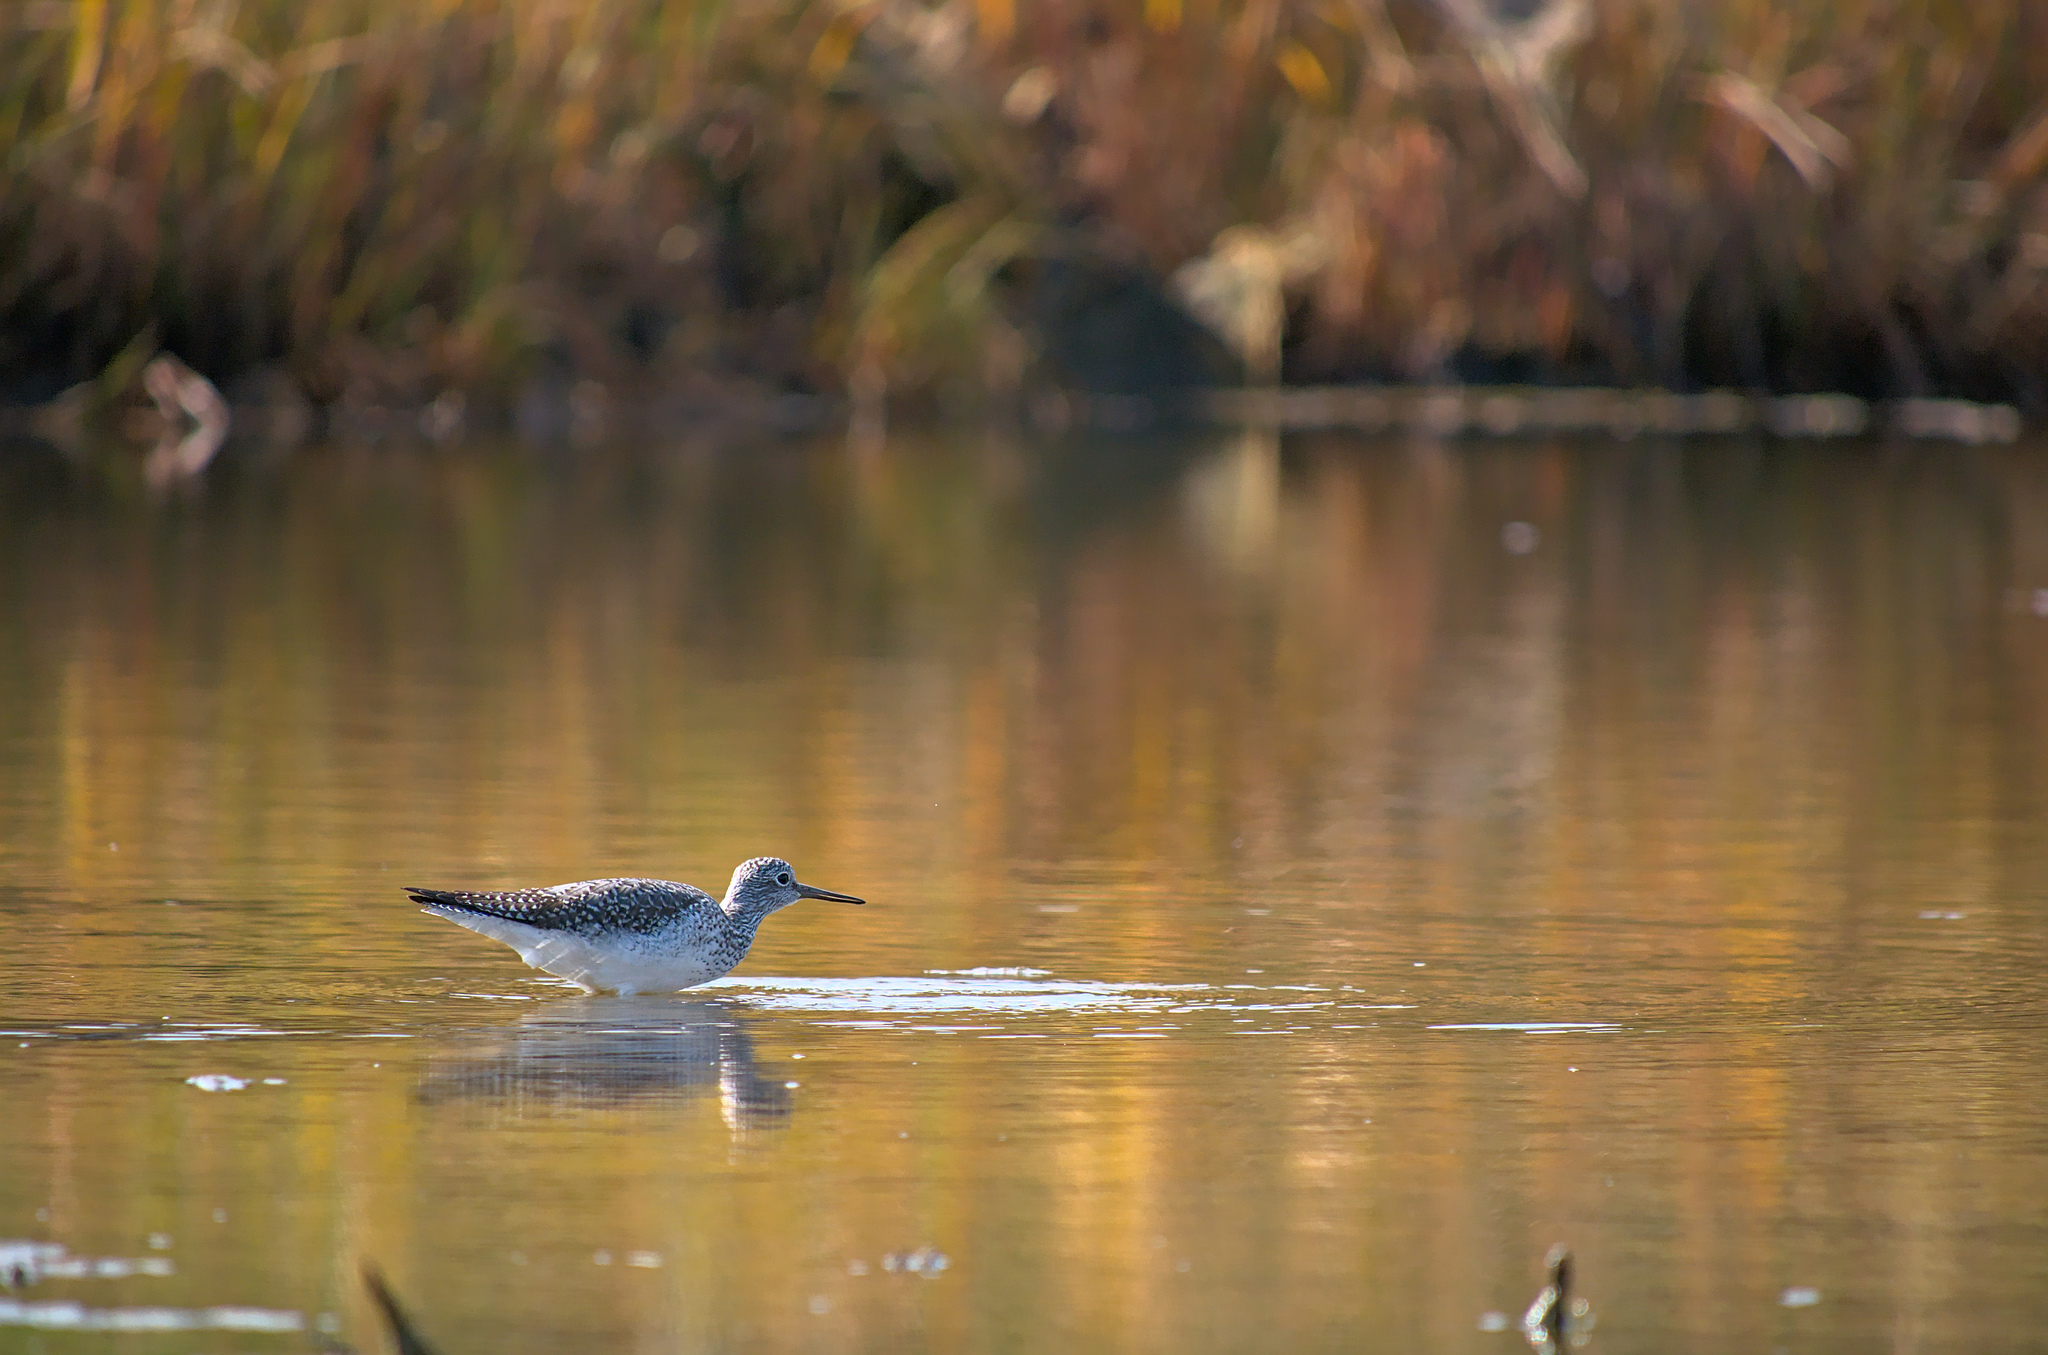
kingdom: Animalia
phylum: Chordata
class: Aves
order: Charadriiformes
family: Scolopacidae
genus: Tringa
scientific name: Tringa melanoleuca
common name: Greater yellowlegs
